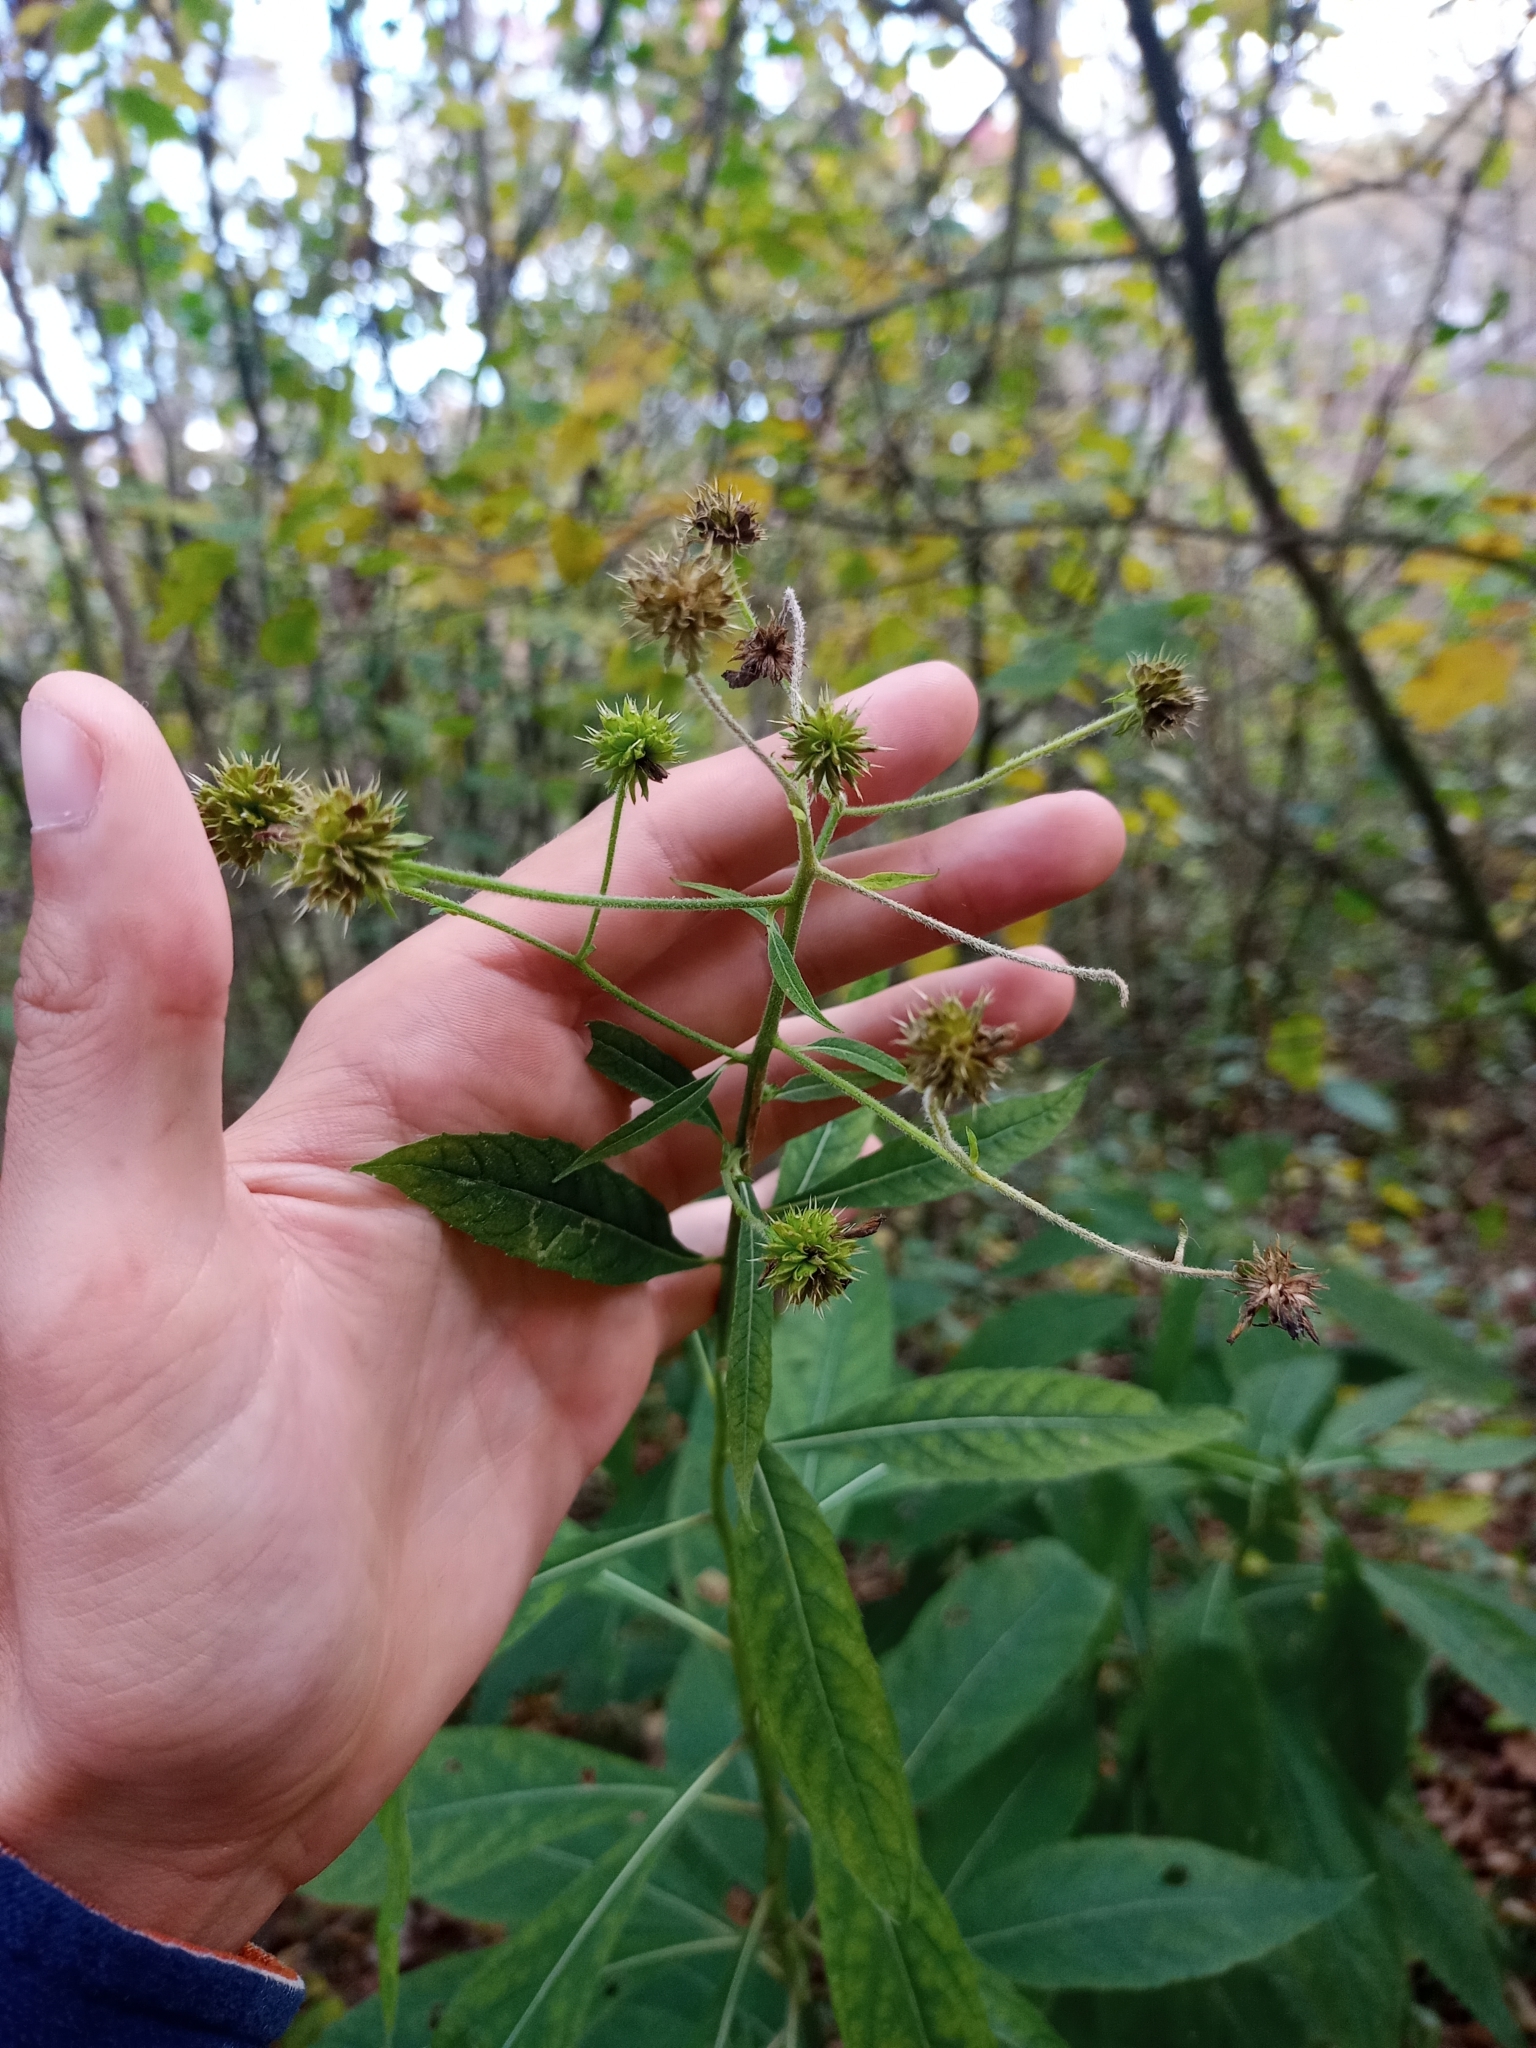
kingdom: Plantae
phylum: Tracheophyta
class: Magnoliopsida
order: Asterales
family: Asteraceae
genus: Verbesina
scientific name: Verbesina alternifolia
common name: Wingstem
